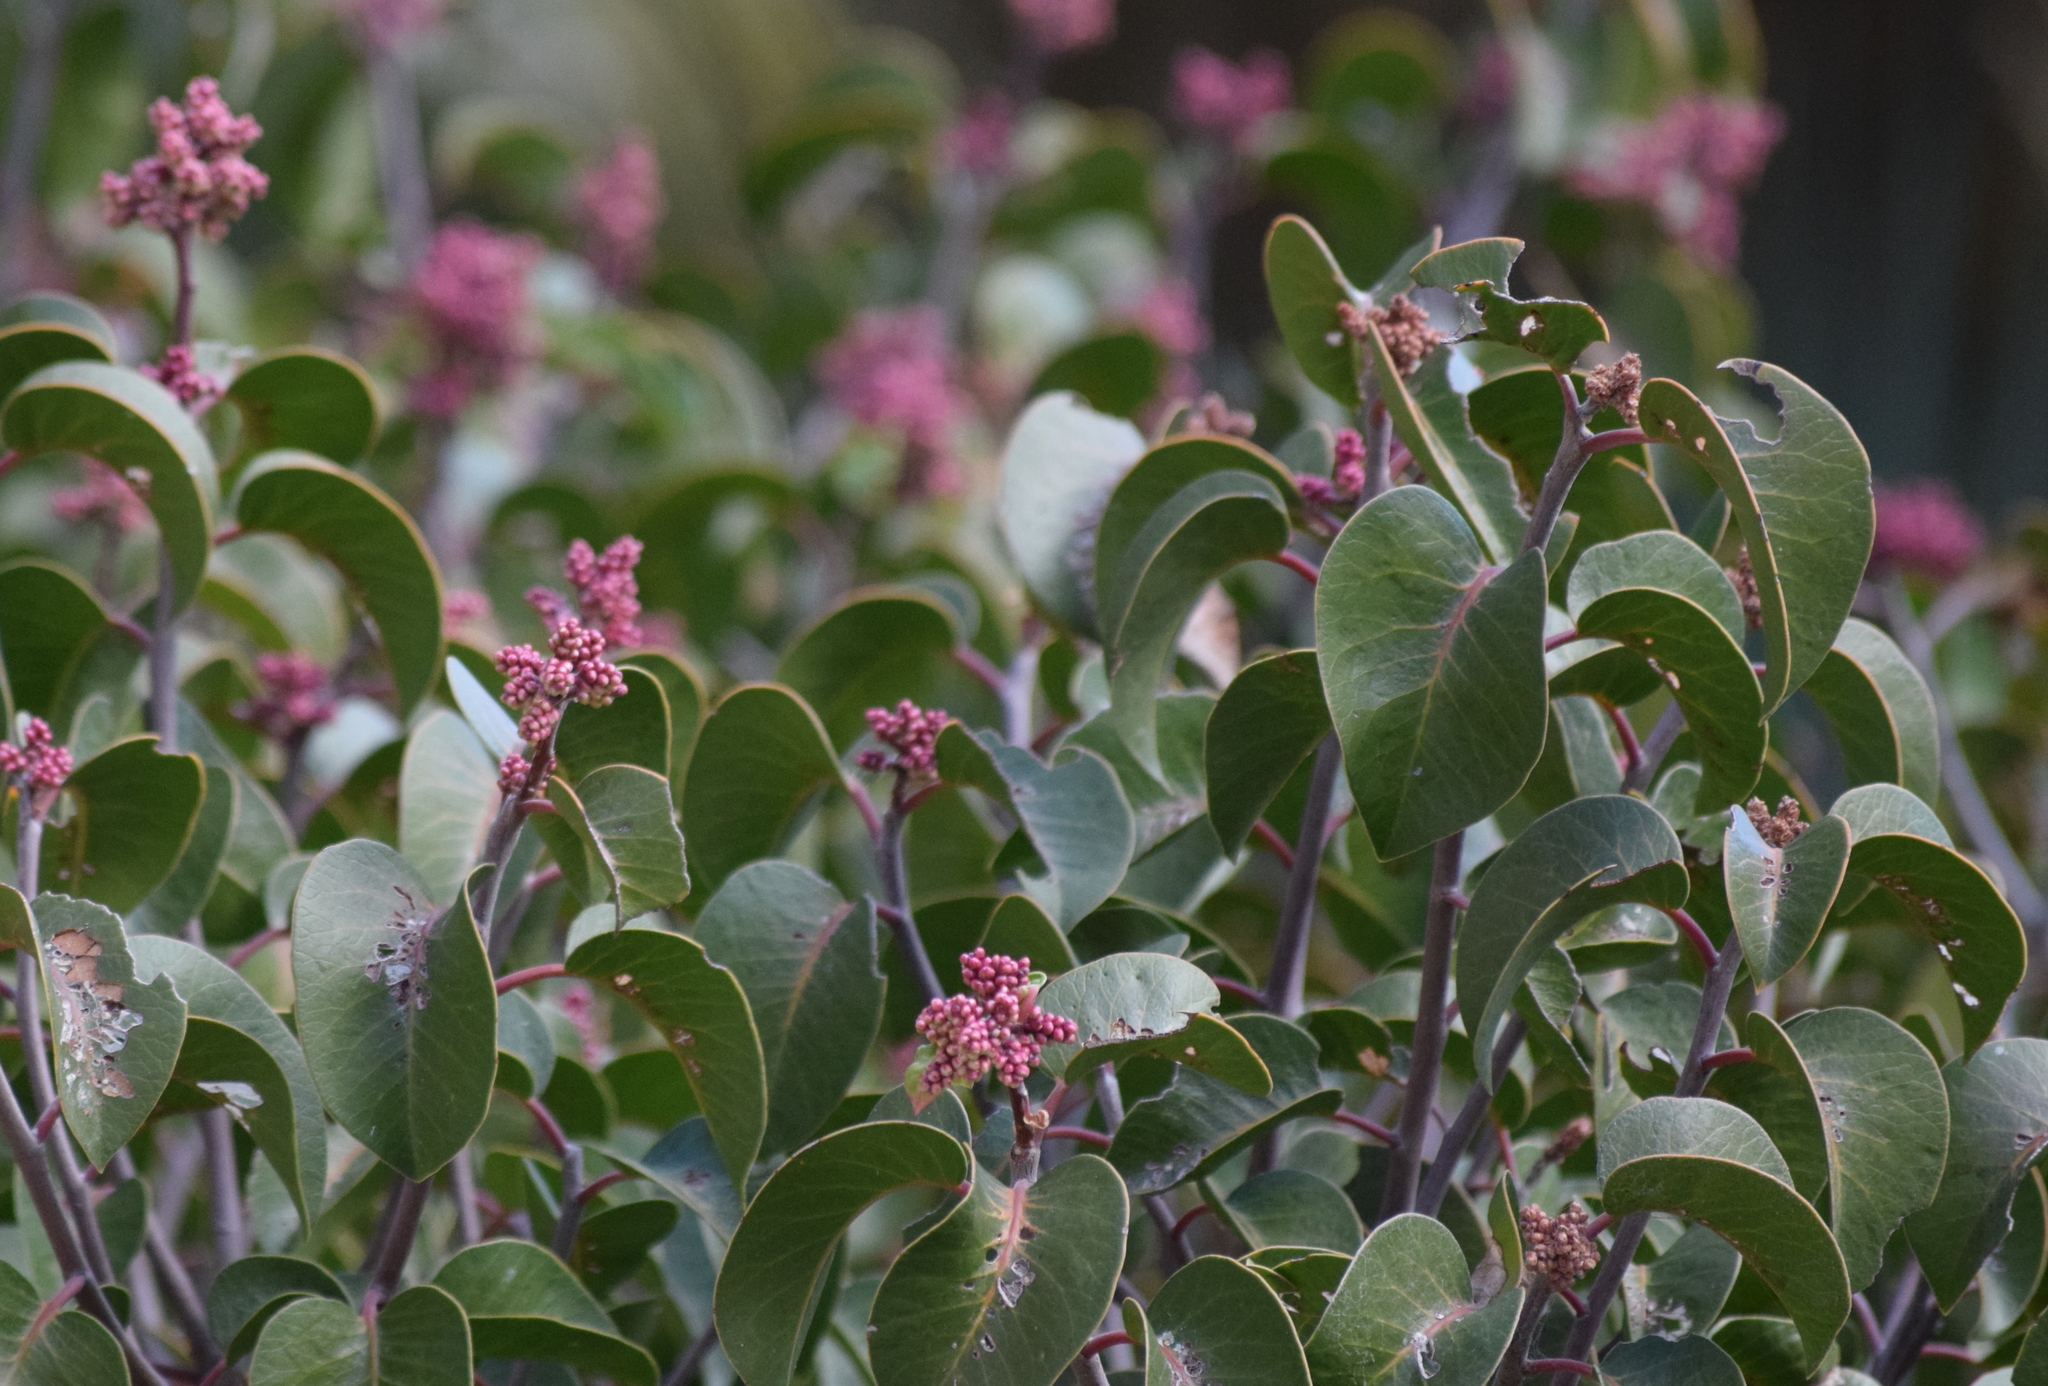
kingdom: Plantae
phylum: Tracheophyta
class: Magnoliopsida
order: Sapindales
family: Anacardiaceae
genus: Rhus
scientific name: Rhus ovata
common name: Sugar sumac
